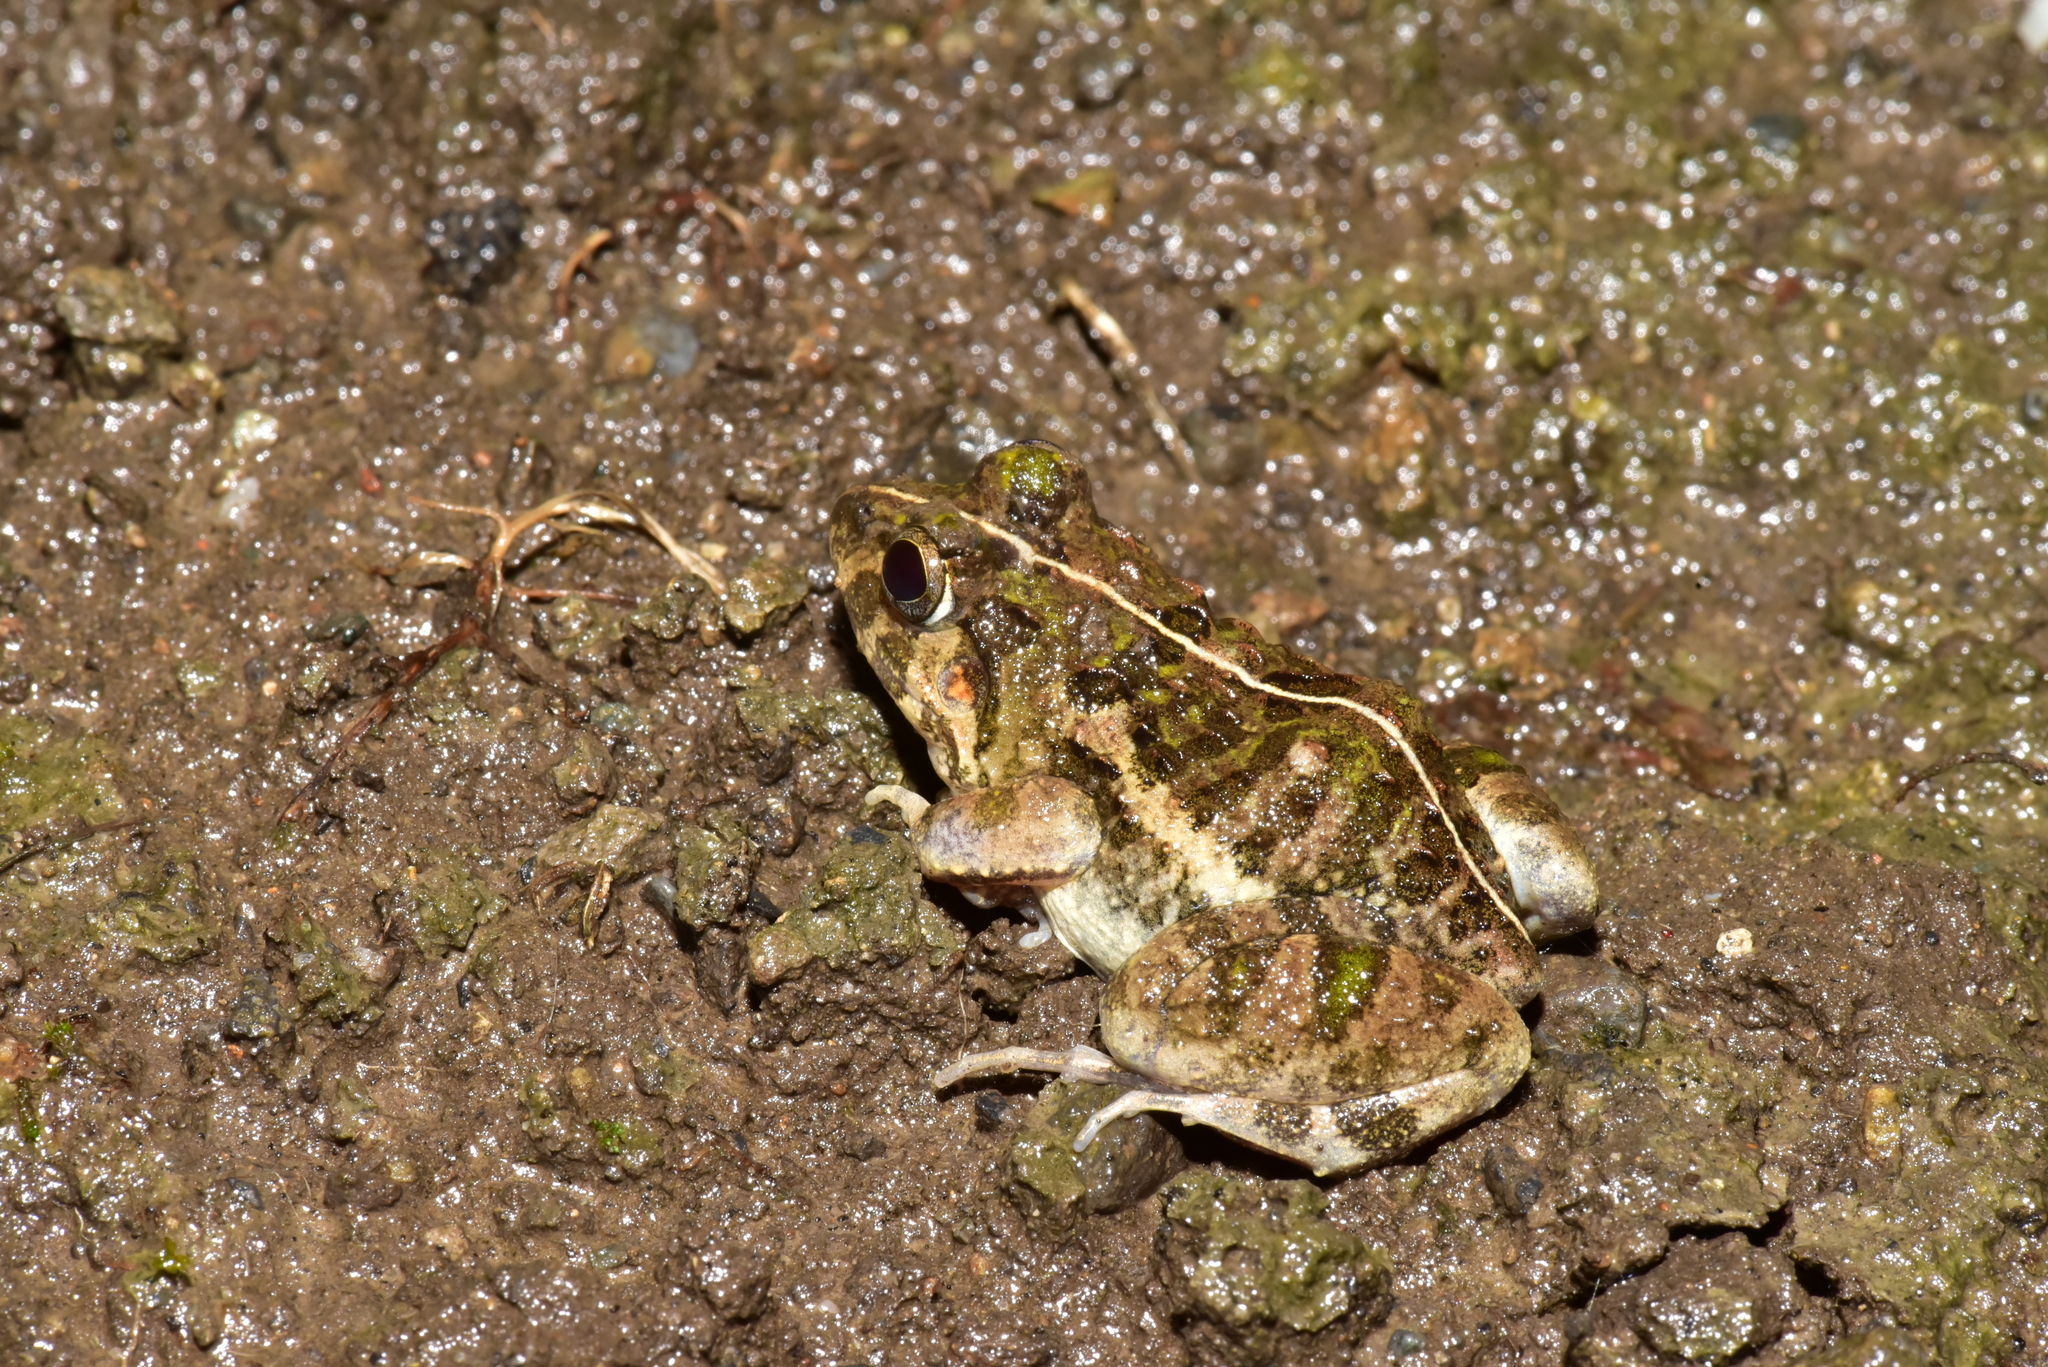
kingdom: Animalia
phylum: Chordata
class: Amphibia
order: Anura
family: Dicroglossidae
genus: Fejervarya
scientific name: Fejervarya limnocharis
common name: Asian grass frog/common pond frog/field frog/grass frog/indian rice frog
